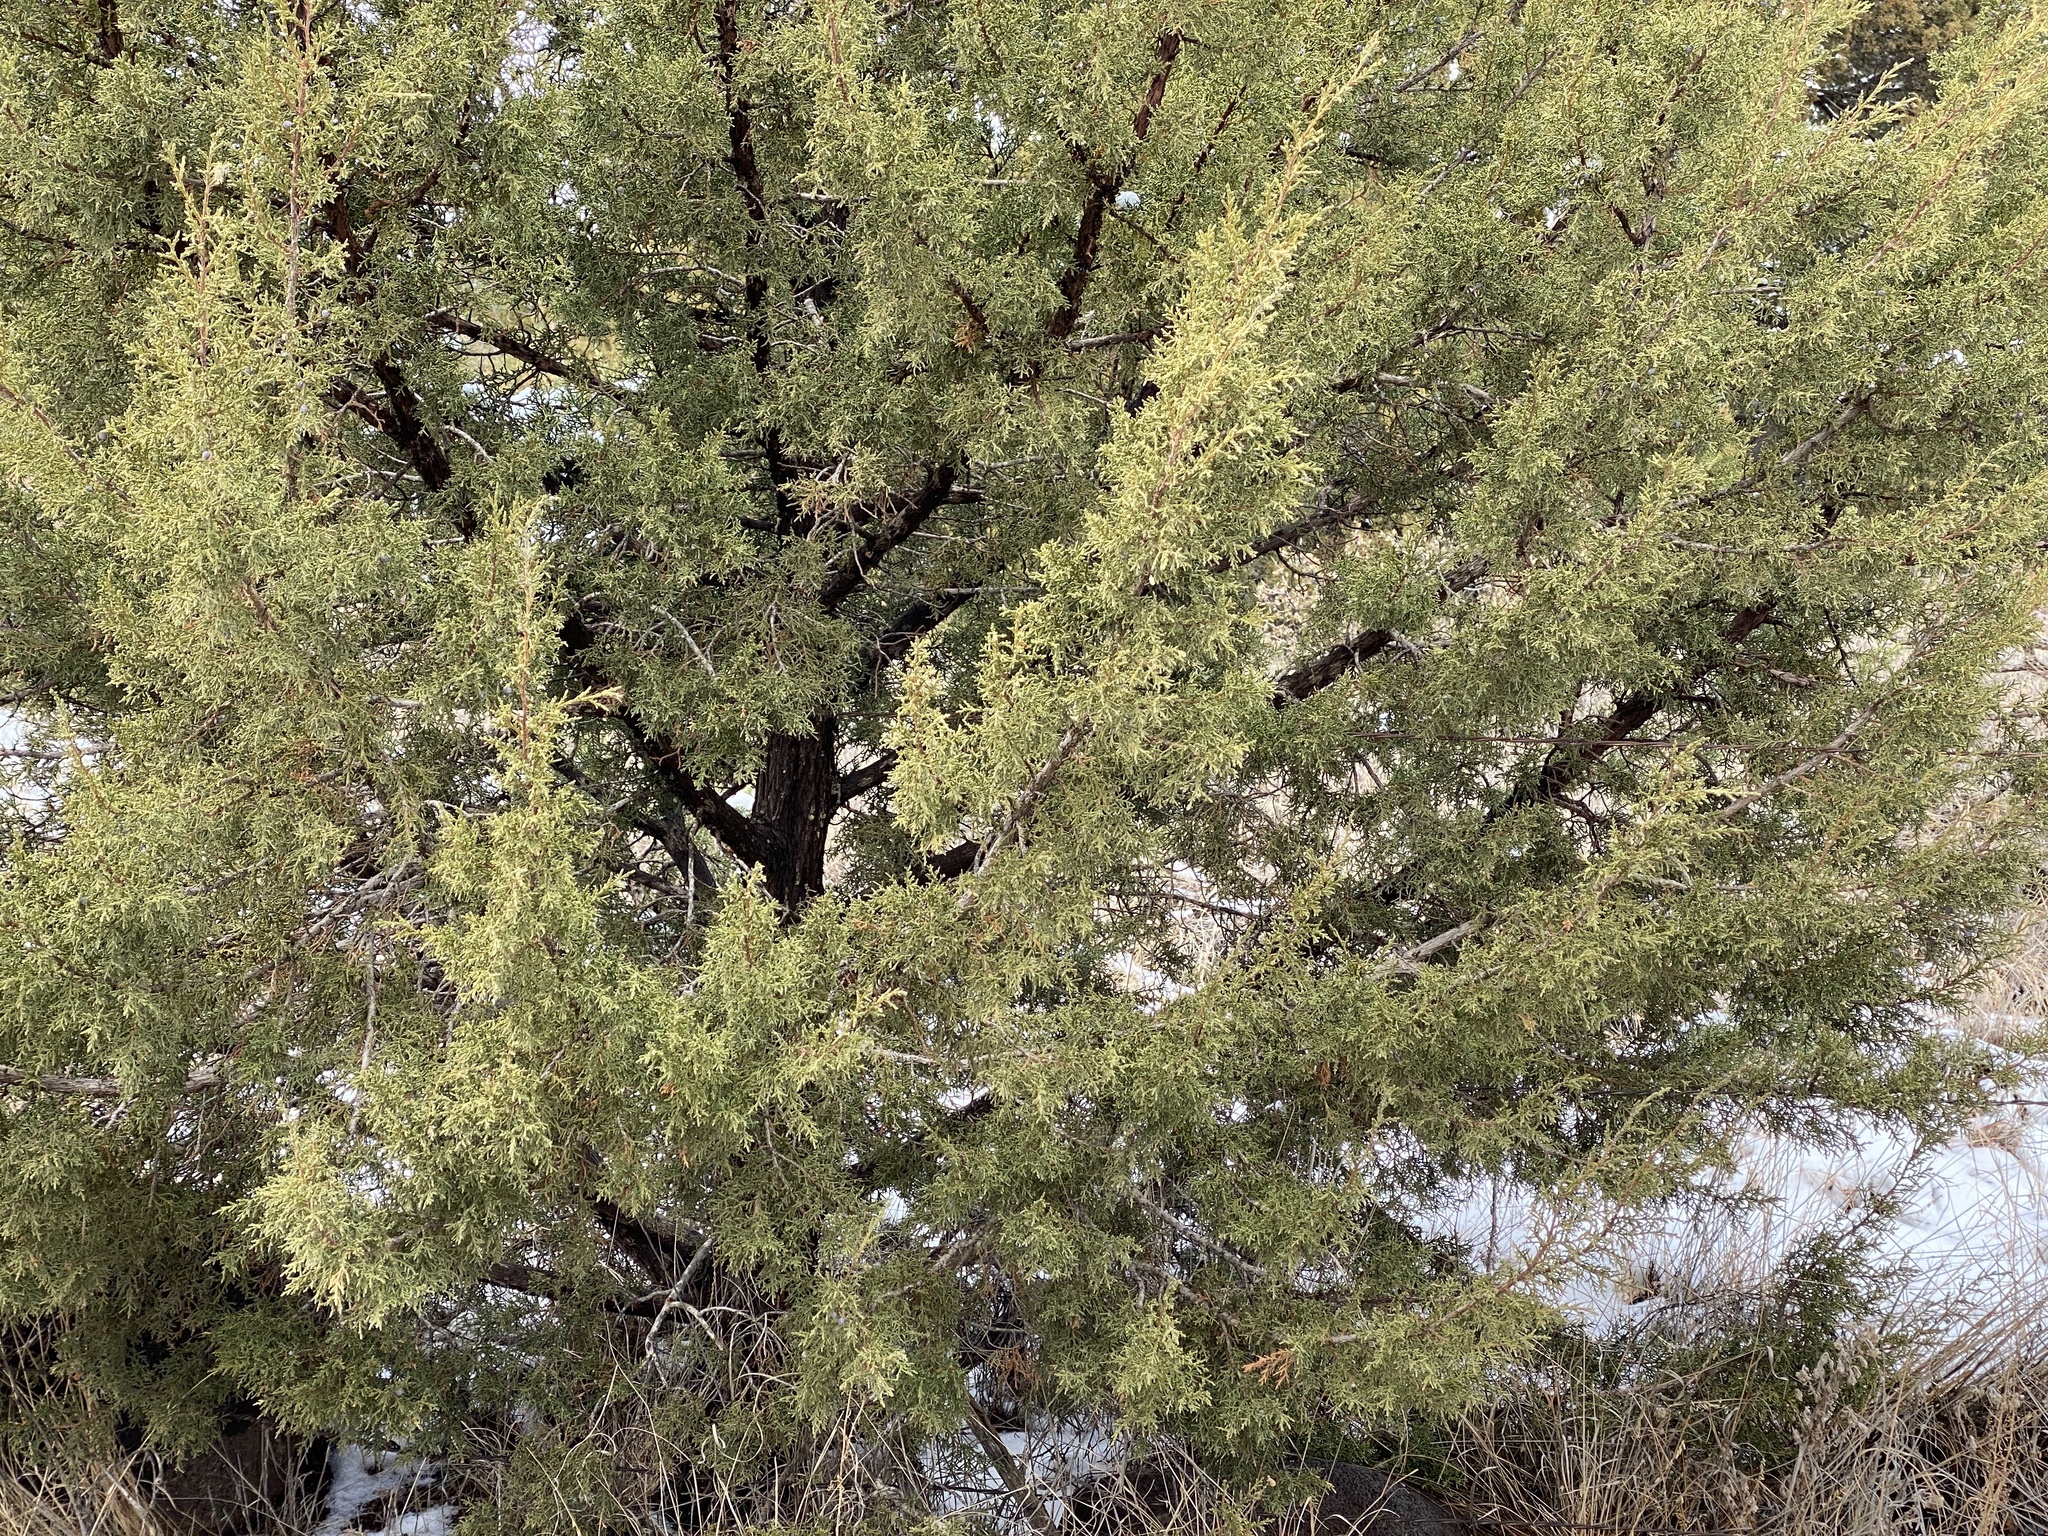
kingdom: Plantae
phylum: Tracheophyta
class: Pinopsida
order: Pinales
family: Cupressaceae
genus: Juniperus
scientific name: Juniperus monosperma
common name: One-seed juniper
